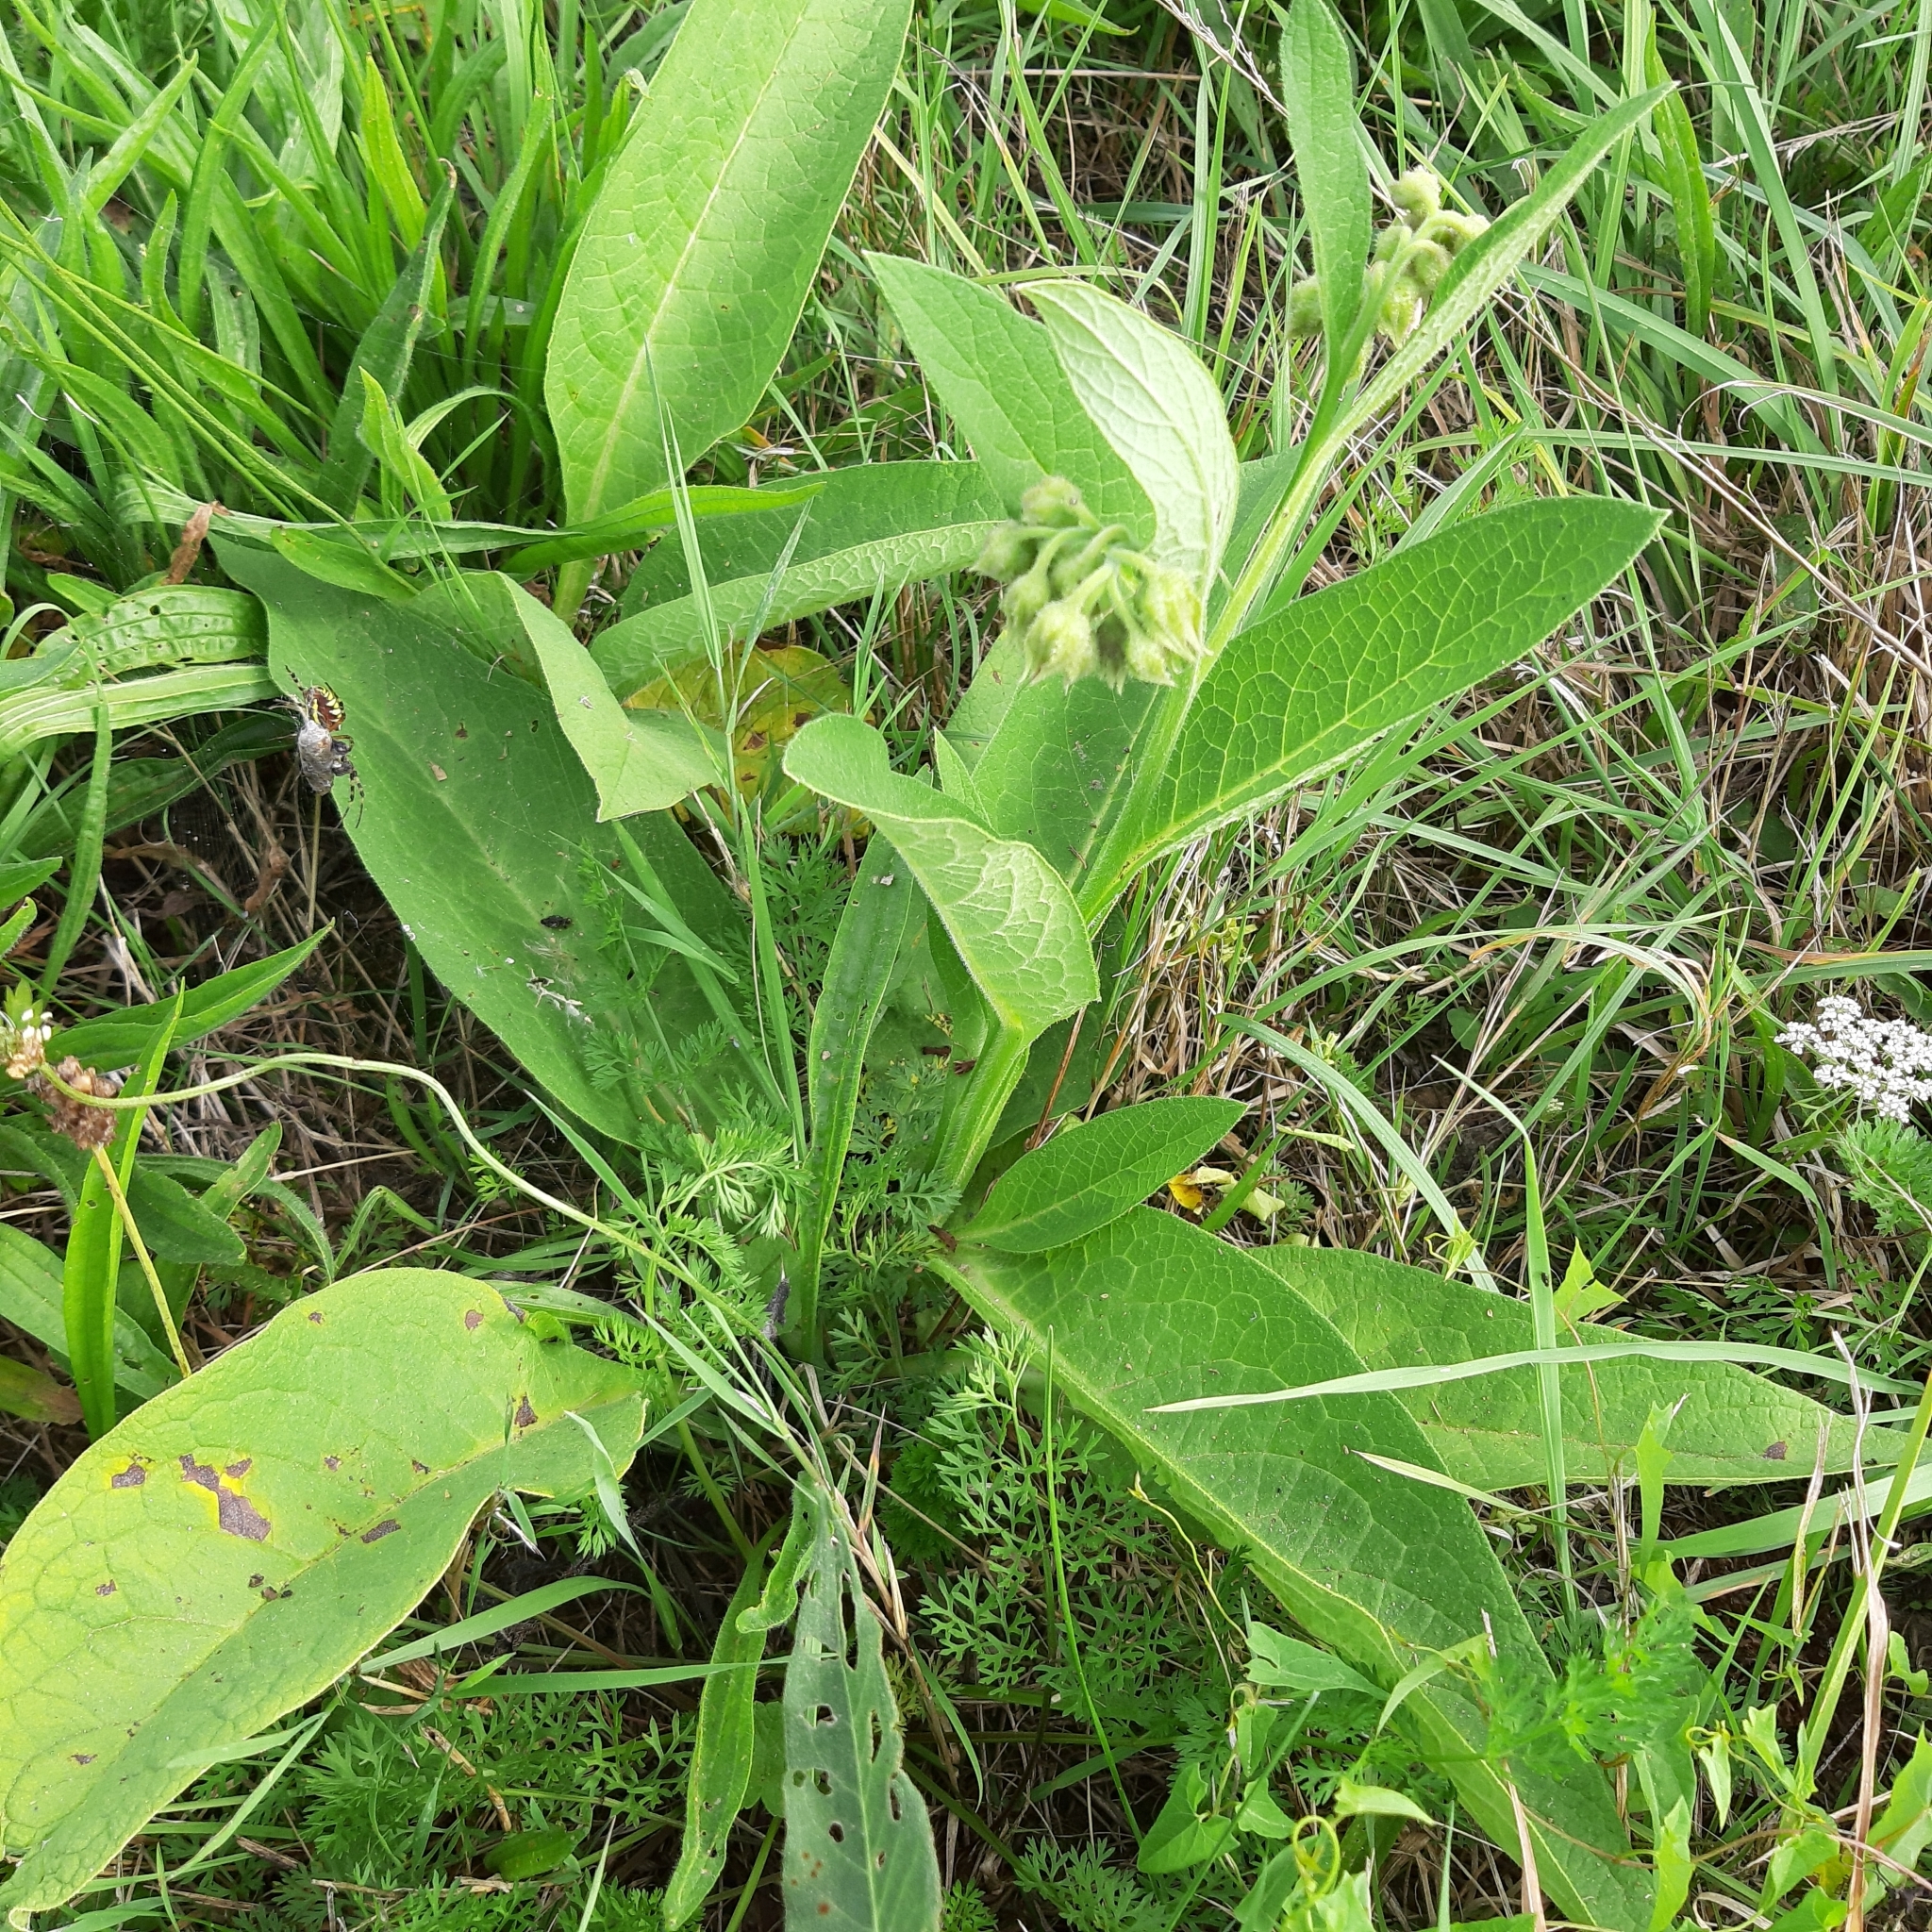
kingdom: Plantae
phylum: Tracheophyta
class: Magnoliopsida
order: Boraginales
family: Boraginaceae
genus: Symphytum
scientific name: Symphytum officinale
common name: Common comfrey
